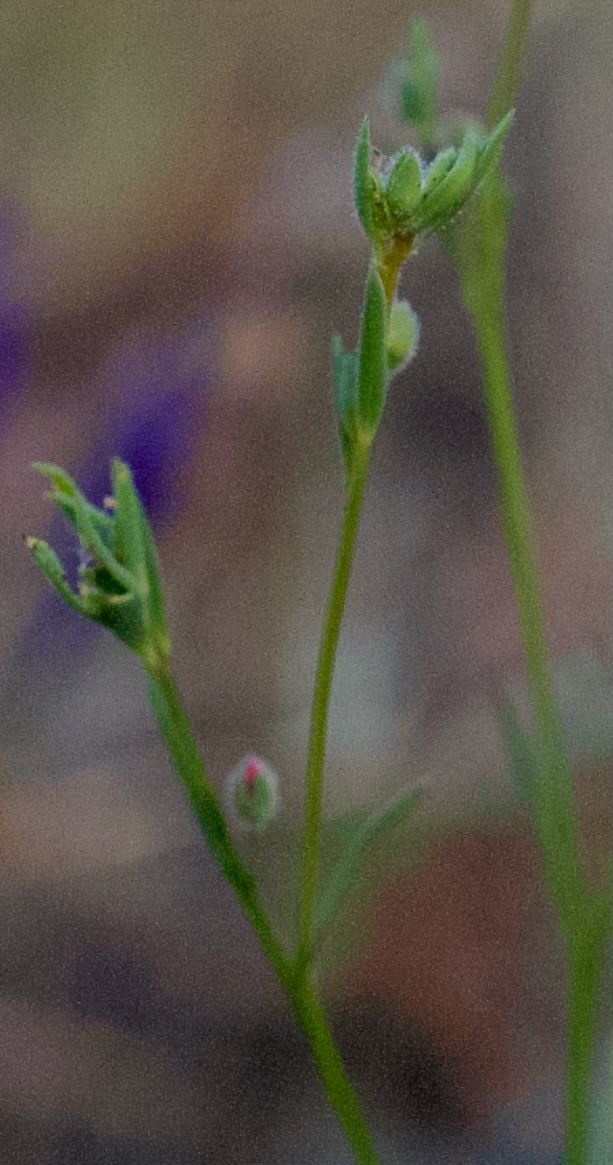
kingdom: Plantae
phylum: Tracheophyta
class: Magnoliopsida
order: Malpighiales
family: Linaceae
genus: Hesperolinon
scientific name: Hesperolinon congestum
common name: Marin dwarf-flax
